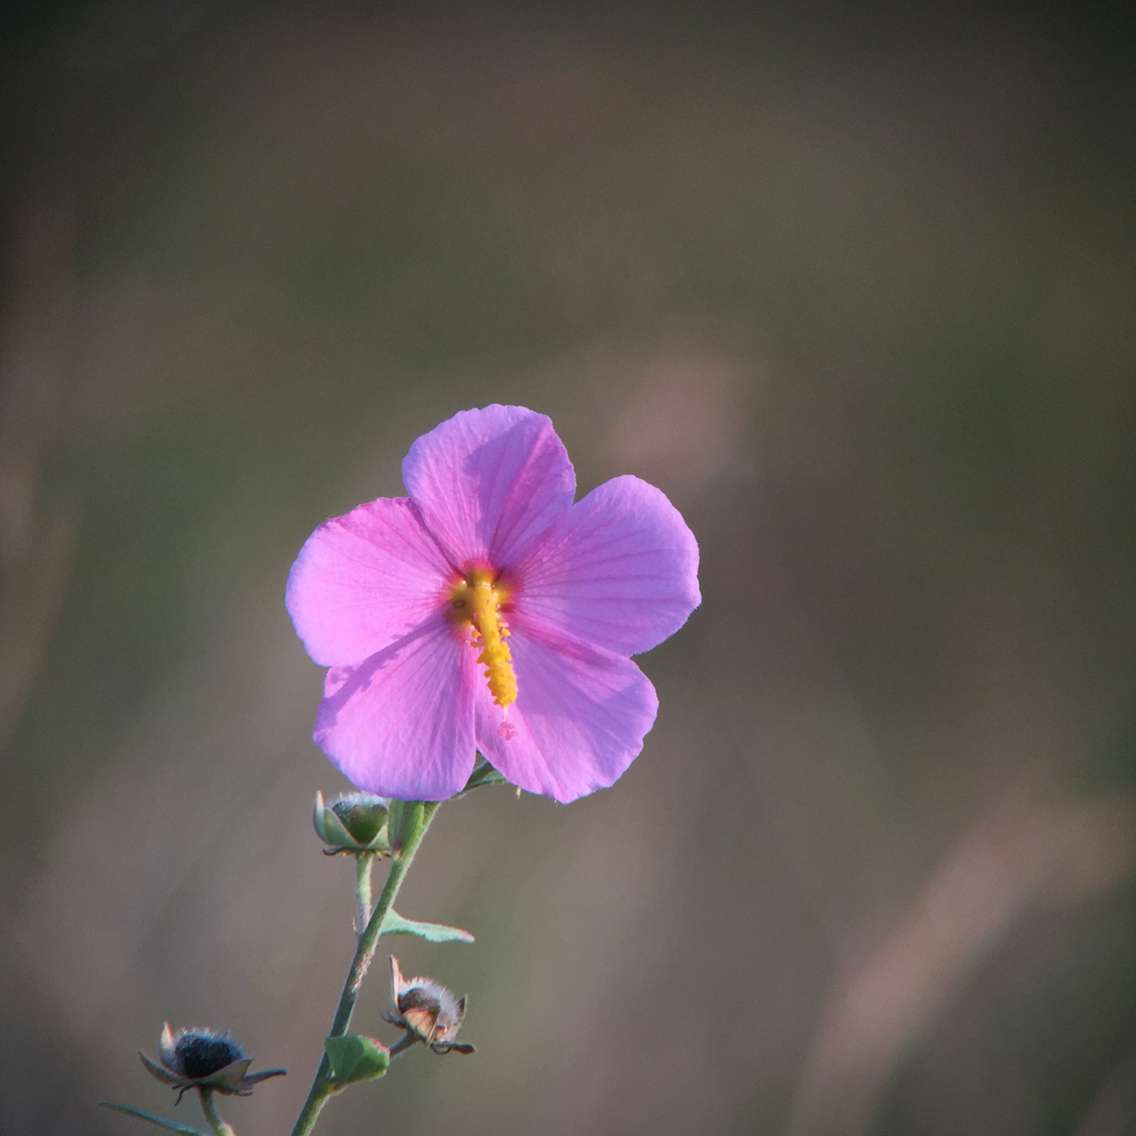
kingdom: Plantae
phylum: Tracheophyta
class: Magnoliopsida
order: Malvales
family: Malvaceae
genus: Kosteletzkya
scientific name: Kosteletzkya pentacarpos
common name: Virginia saltmarsh mallow
